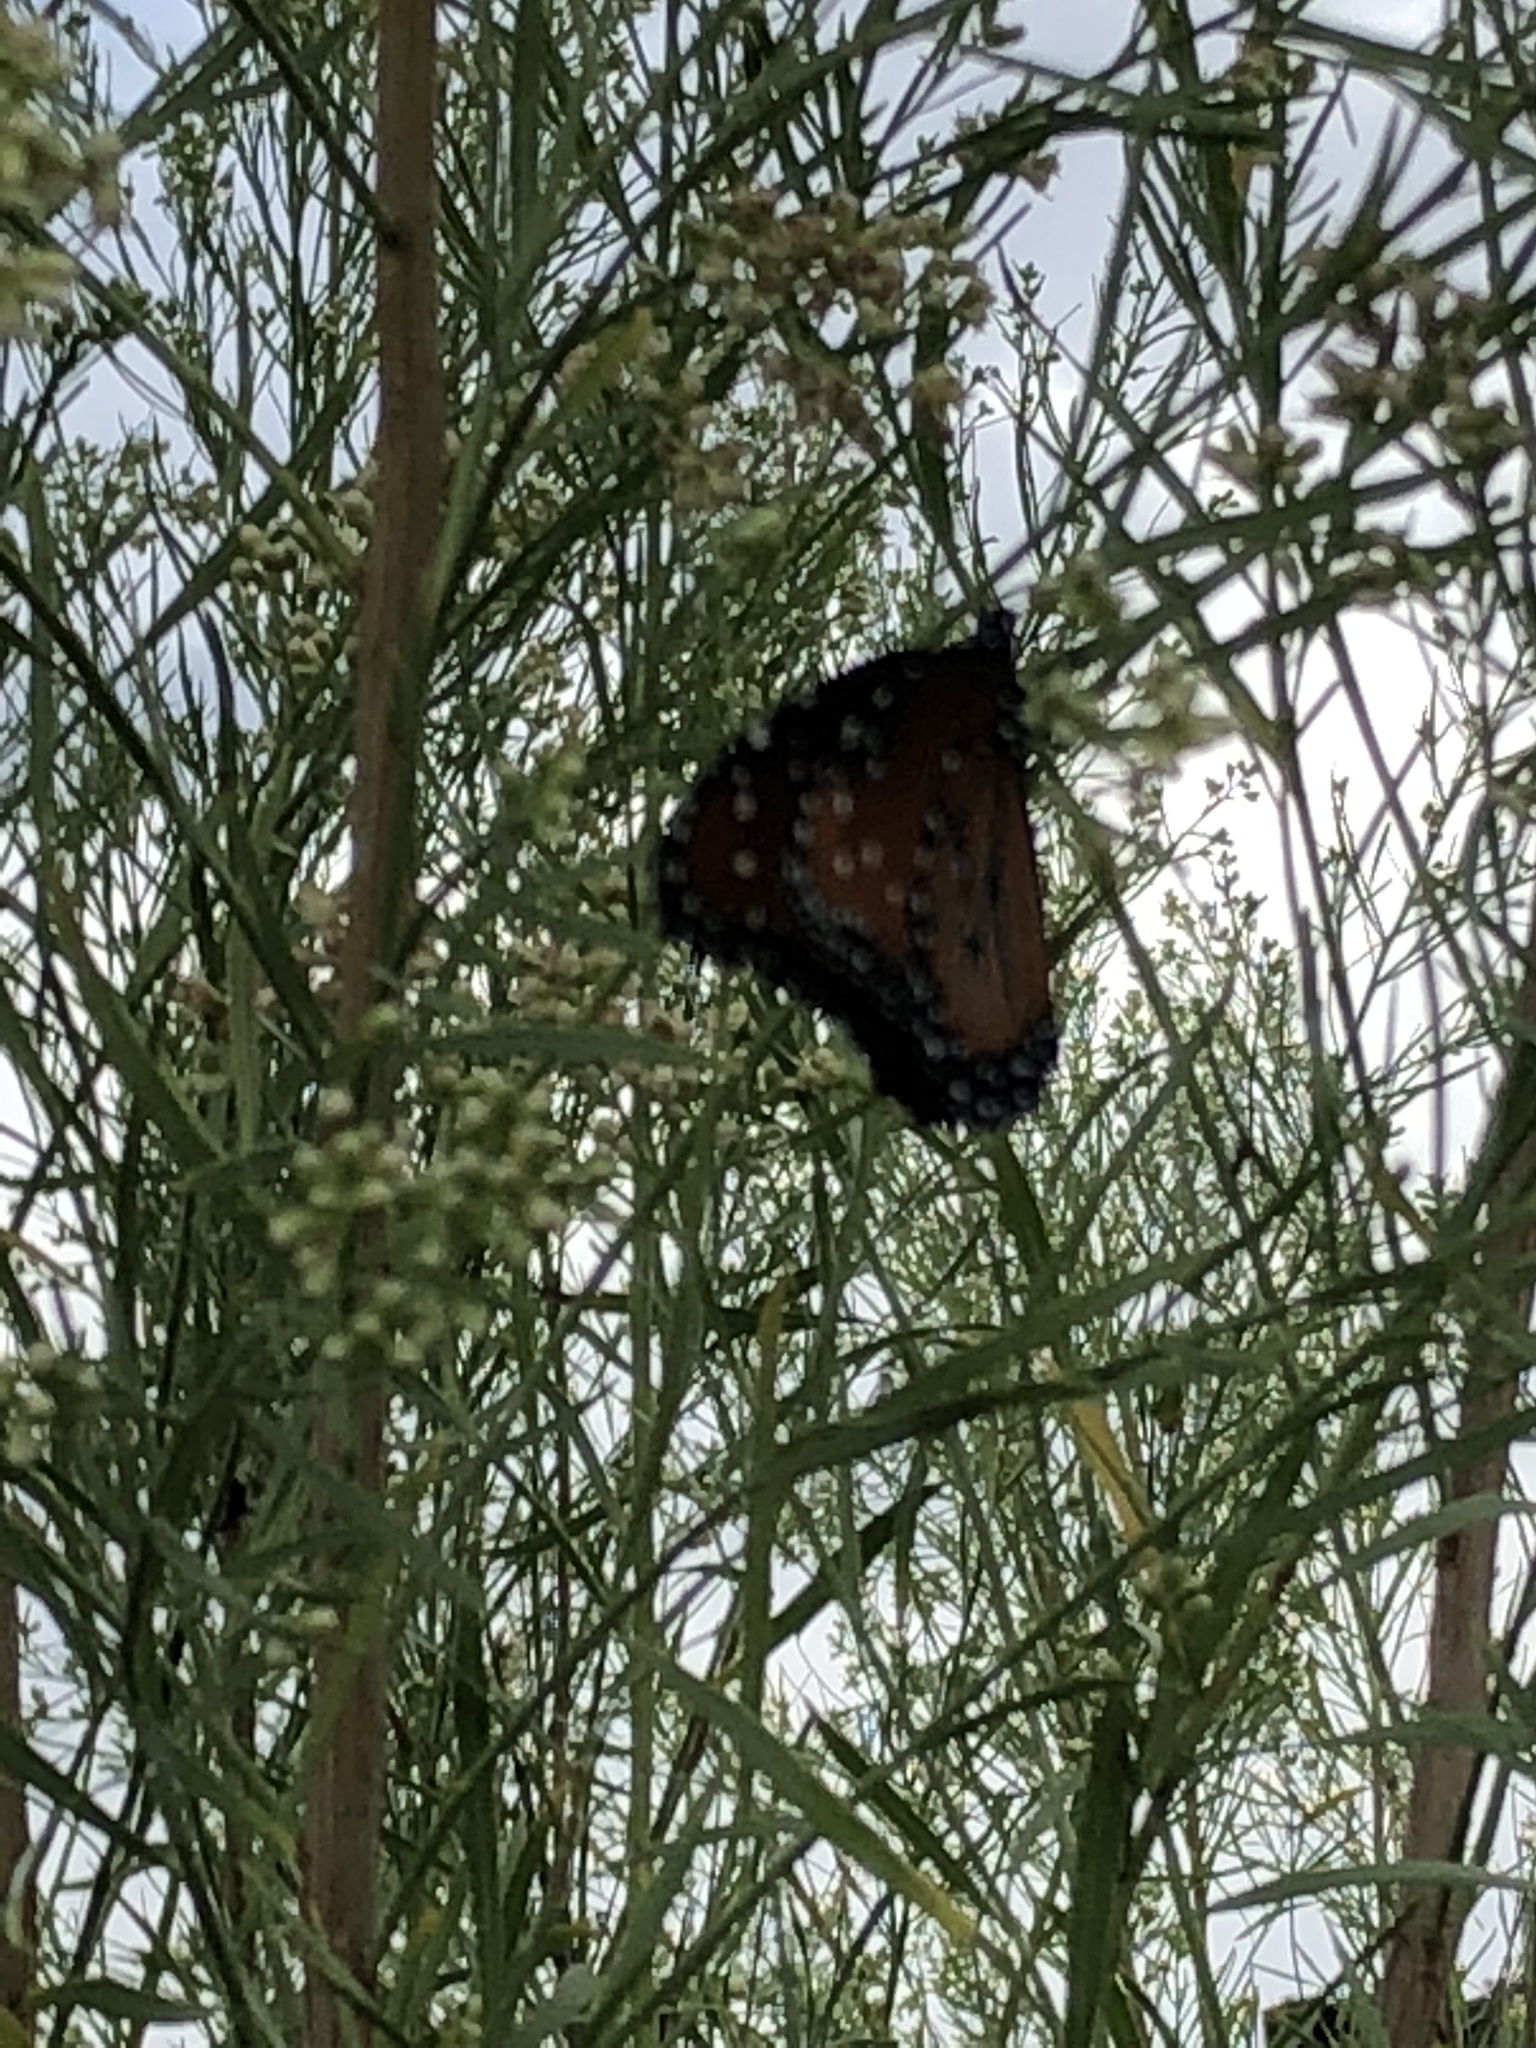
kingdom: Animalia
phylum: Arthropoda
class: Insecta
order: Lepidoptera
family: Nymphalidae
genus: Danaus
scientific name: Danaus gilippus
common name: Queen
